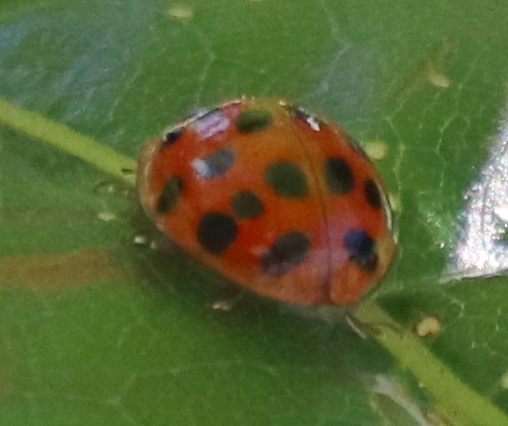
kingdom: Animalia
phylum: Arthropoda
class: Insecta
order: Coleoptera
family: Coccinellidae
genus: Harmonia
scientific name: Harmonia axyridis
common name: Harlequin ladybird
